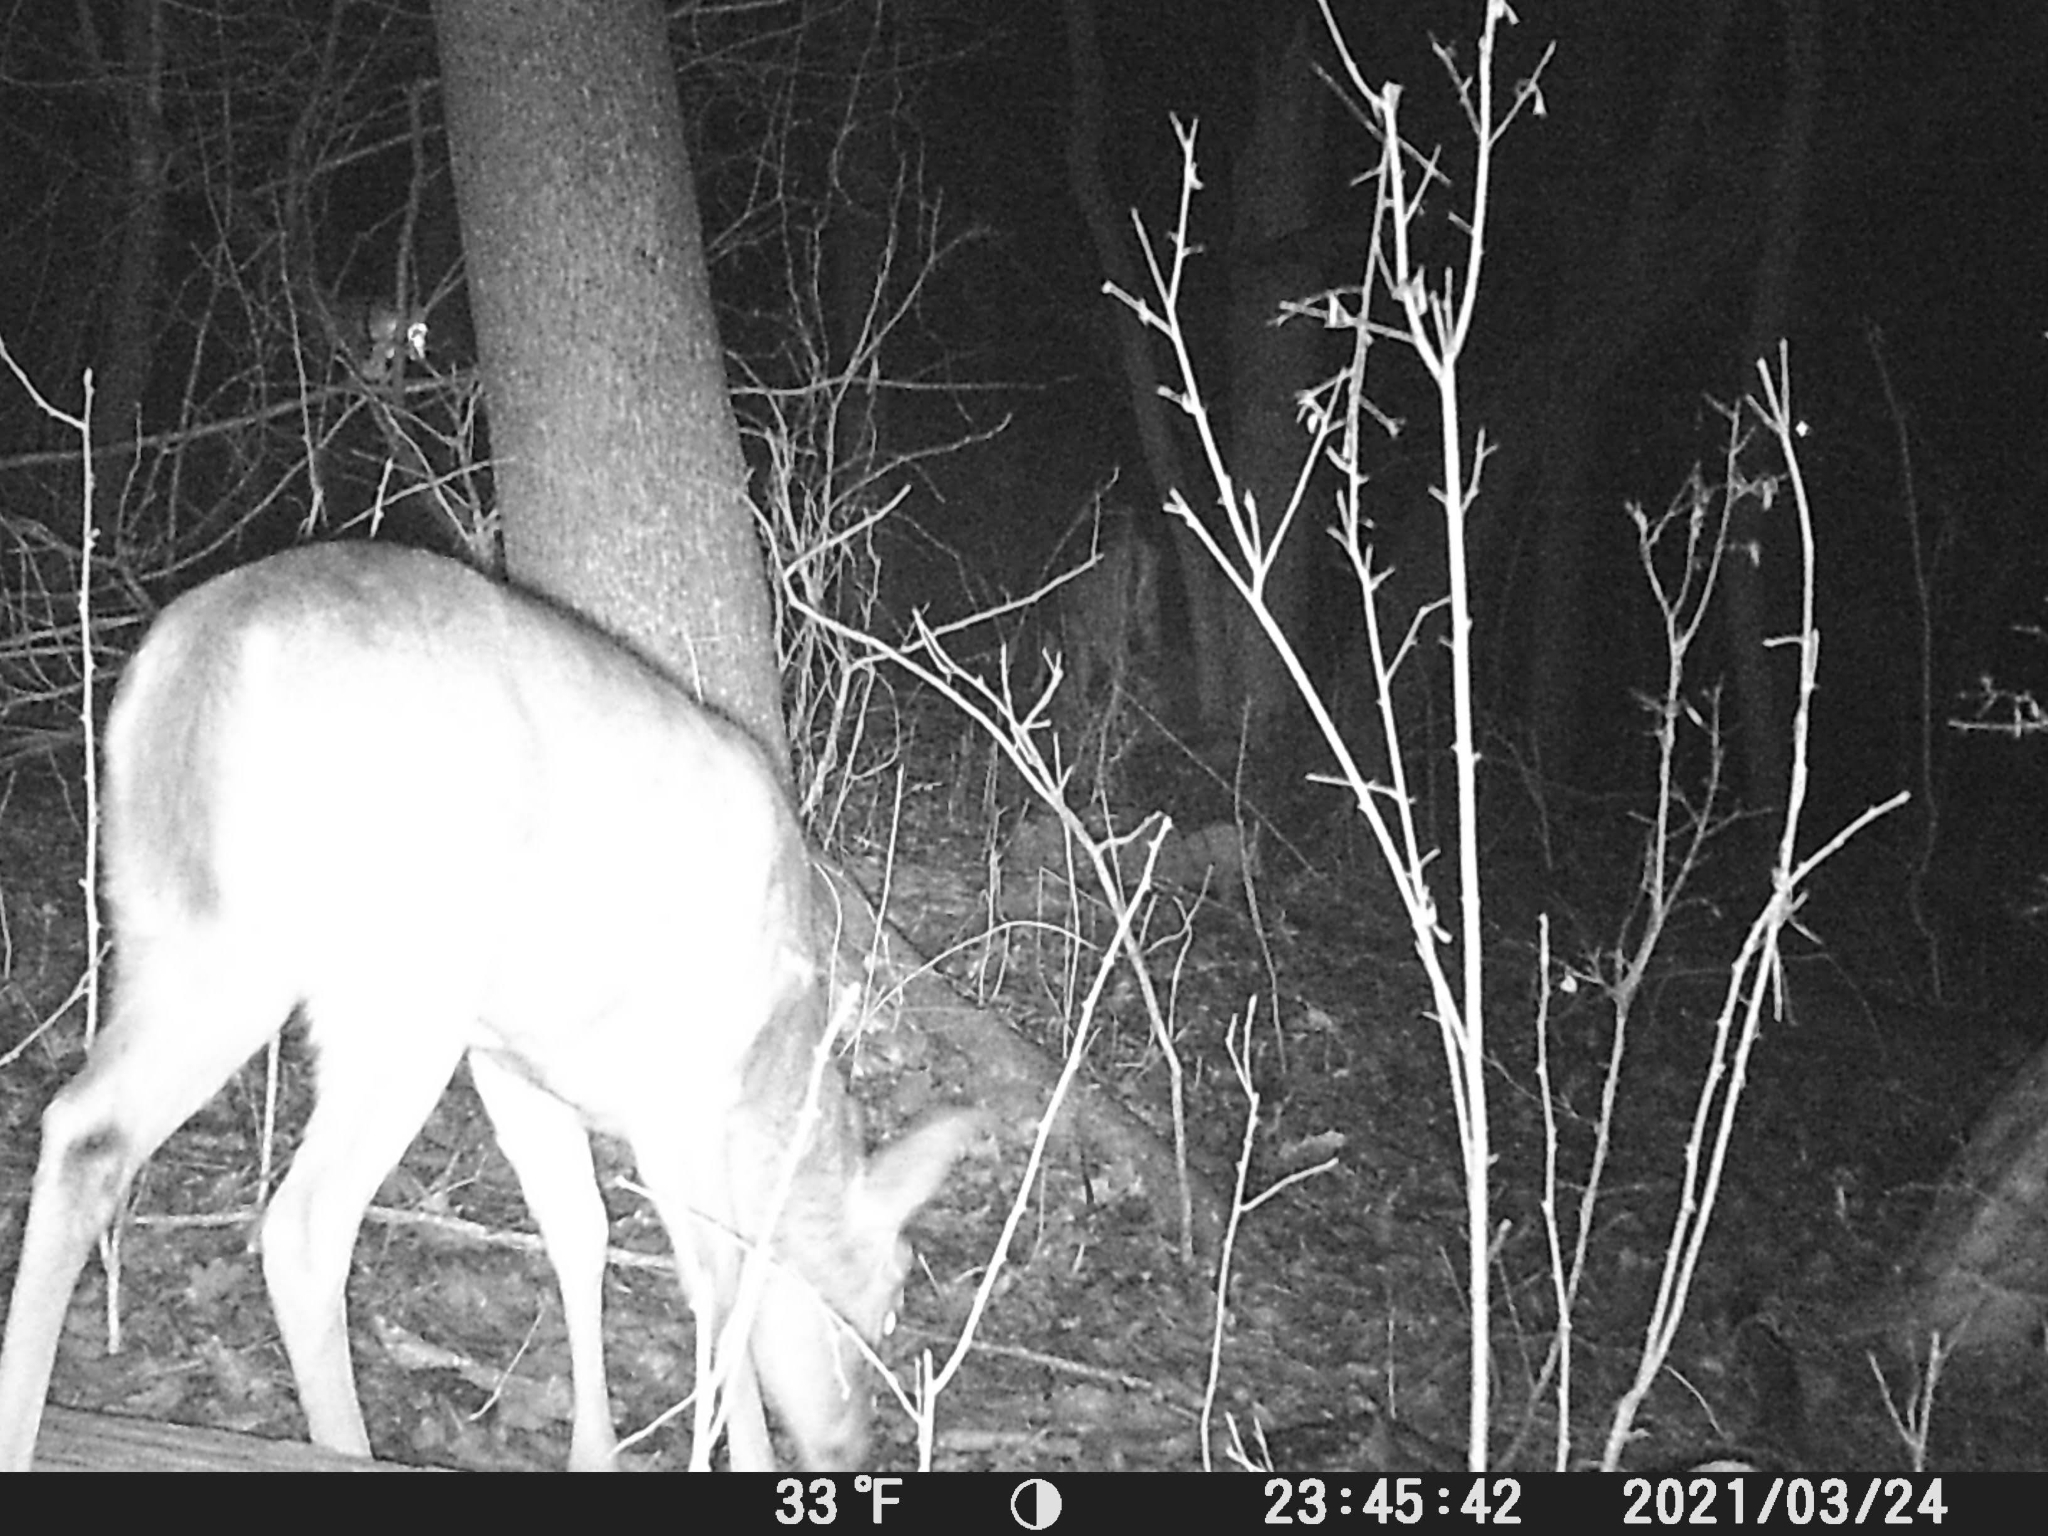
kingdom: Animalia
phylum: Chordata
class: Mammalia
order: Artiodactyla
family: Cervidae
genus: Odocoileus
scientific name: Odocoileus virginianus
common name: White-tailed deer
